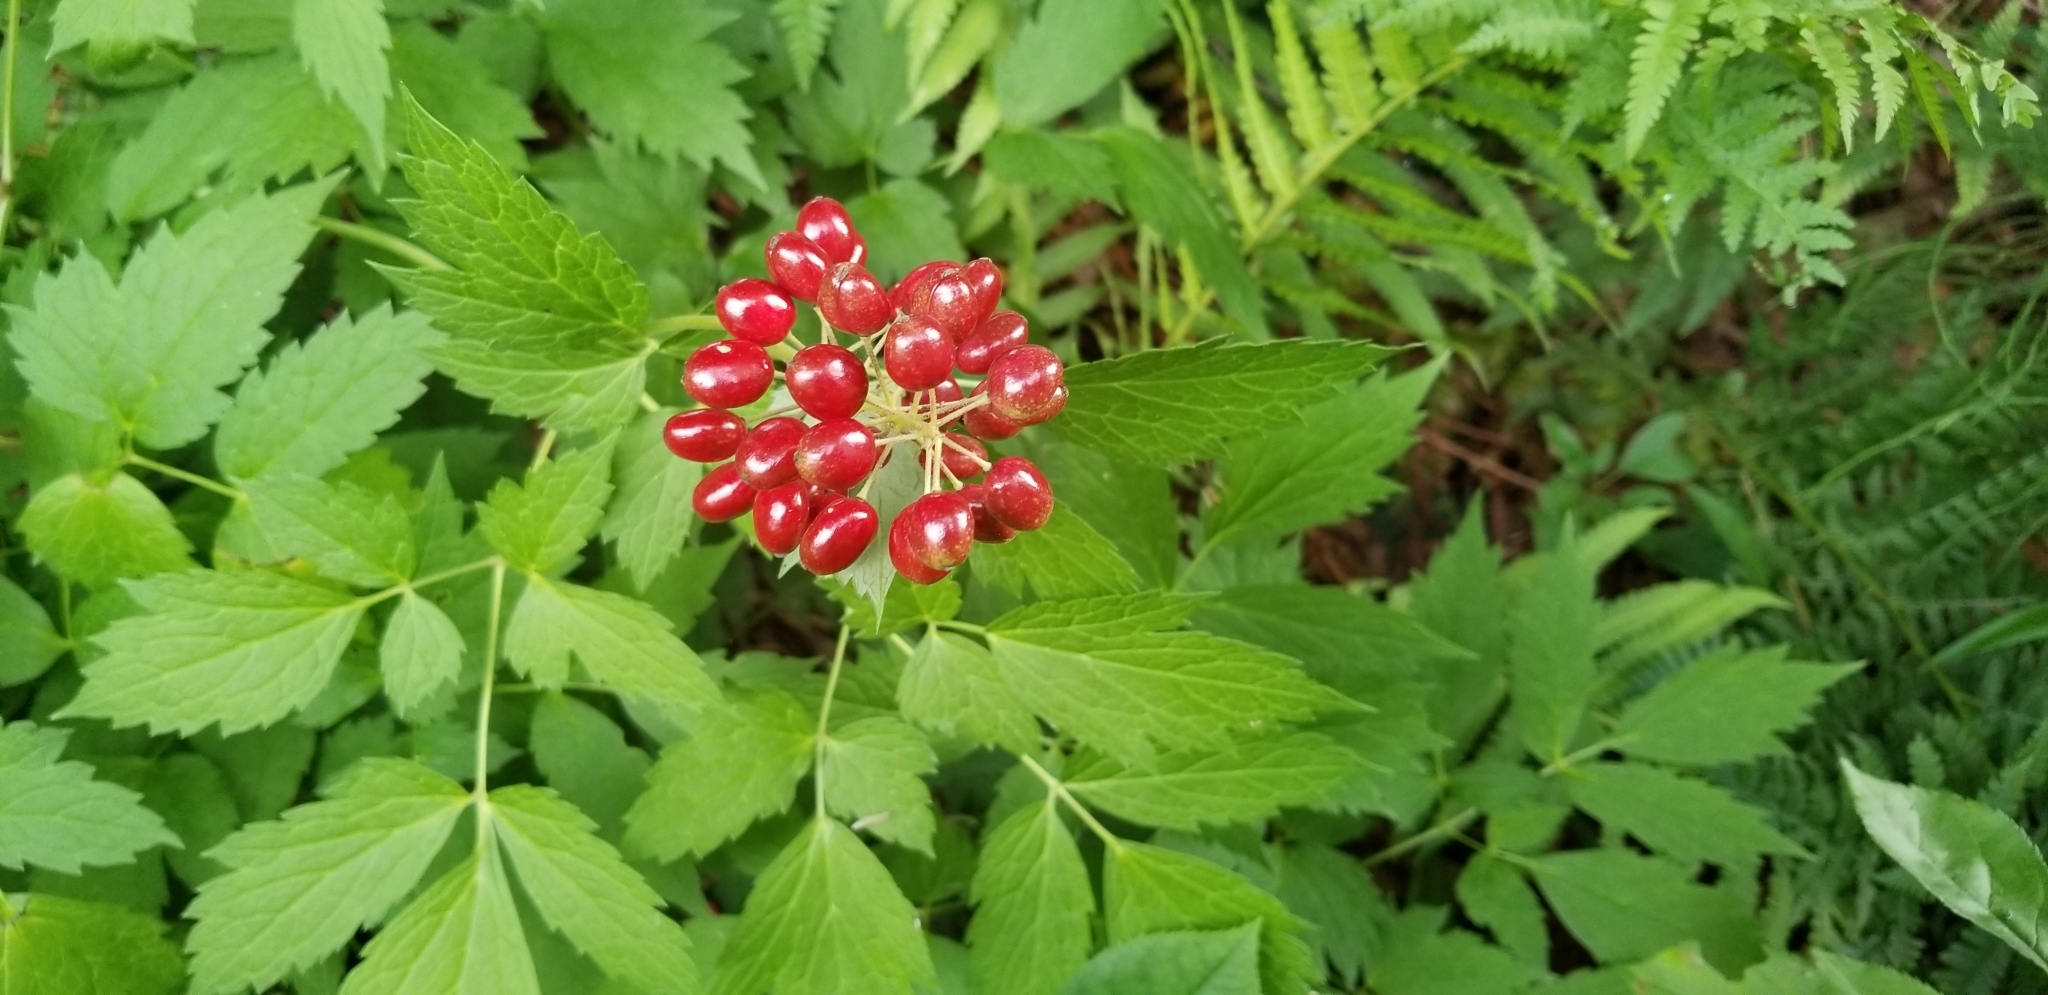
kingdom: Plantae
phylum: Tracheophyta
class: Magnoliopsida
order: Ranunculales
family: Ranunculaceae
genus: Actaea
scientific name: Actaea rubra
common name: Red baneberry
